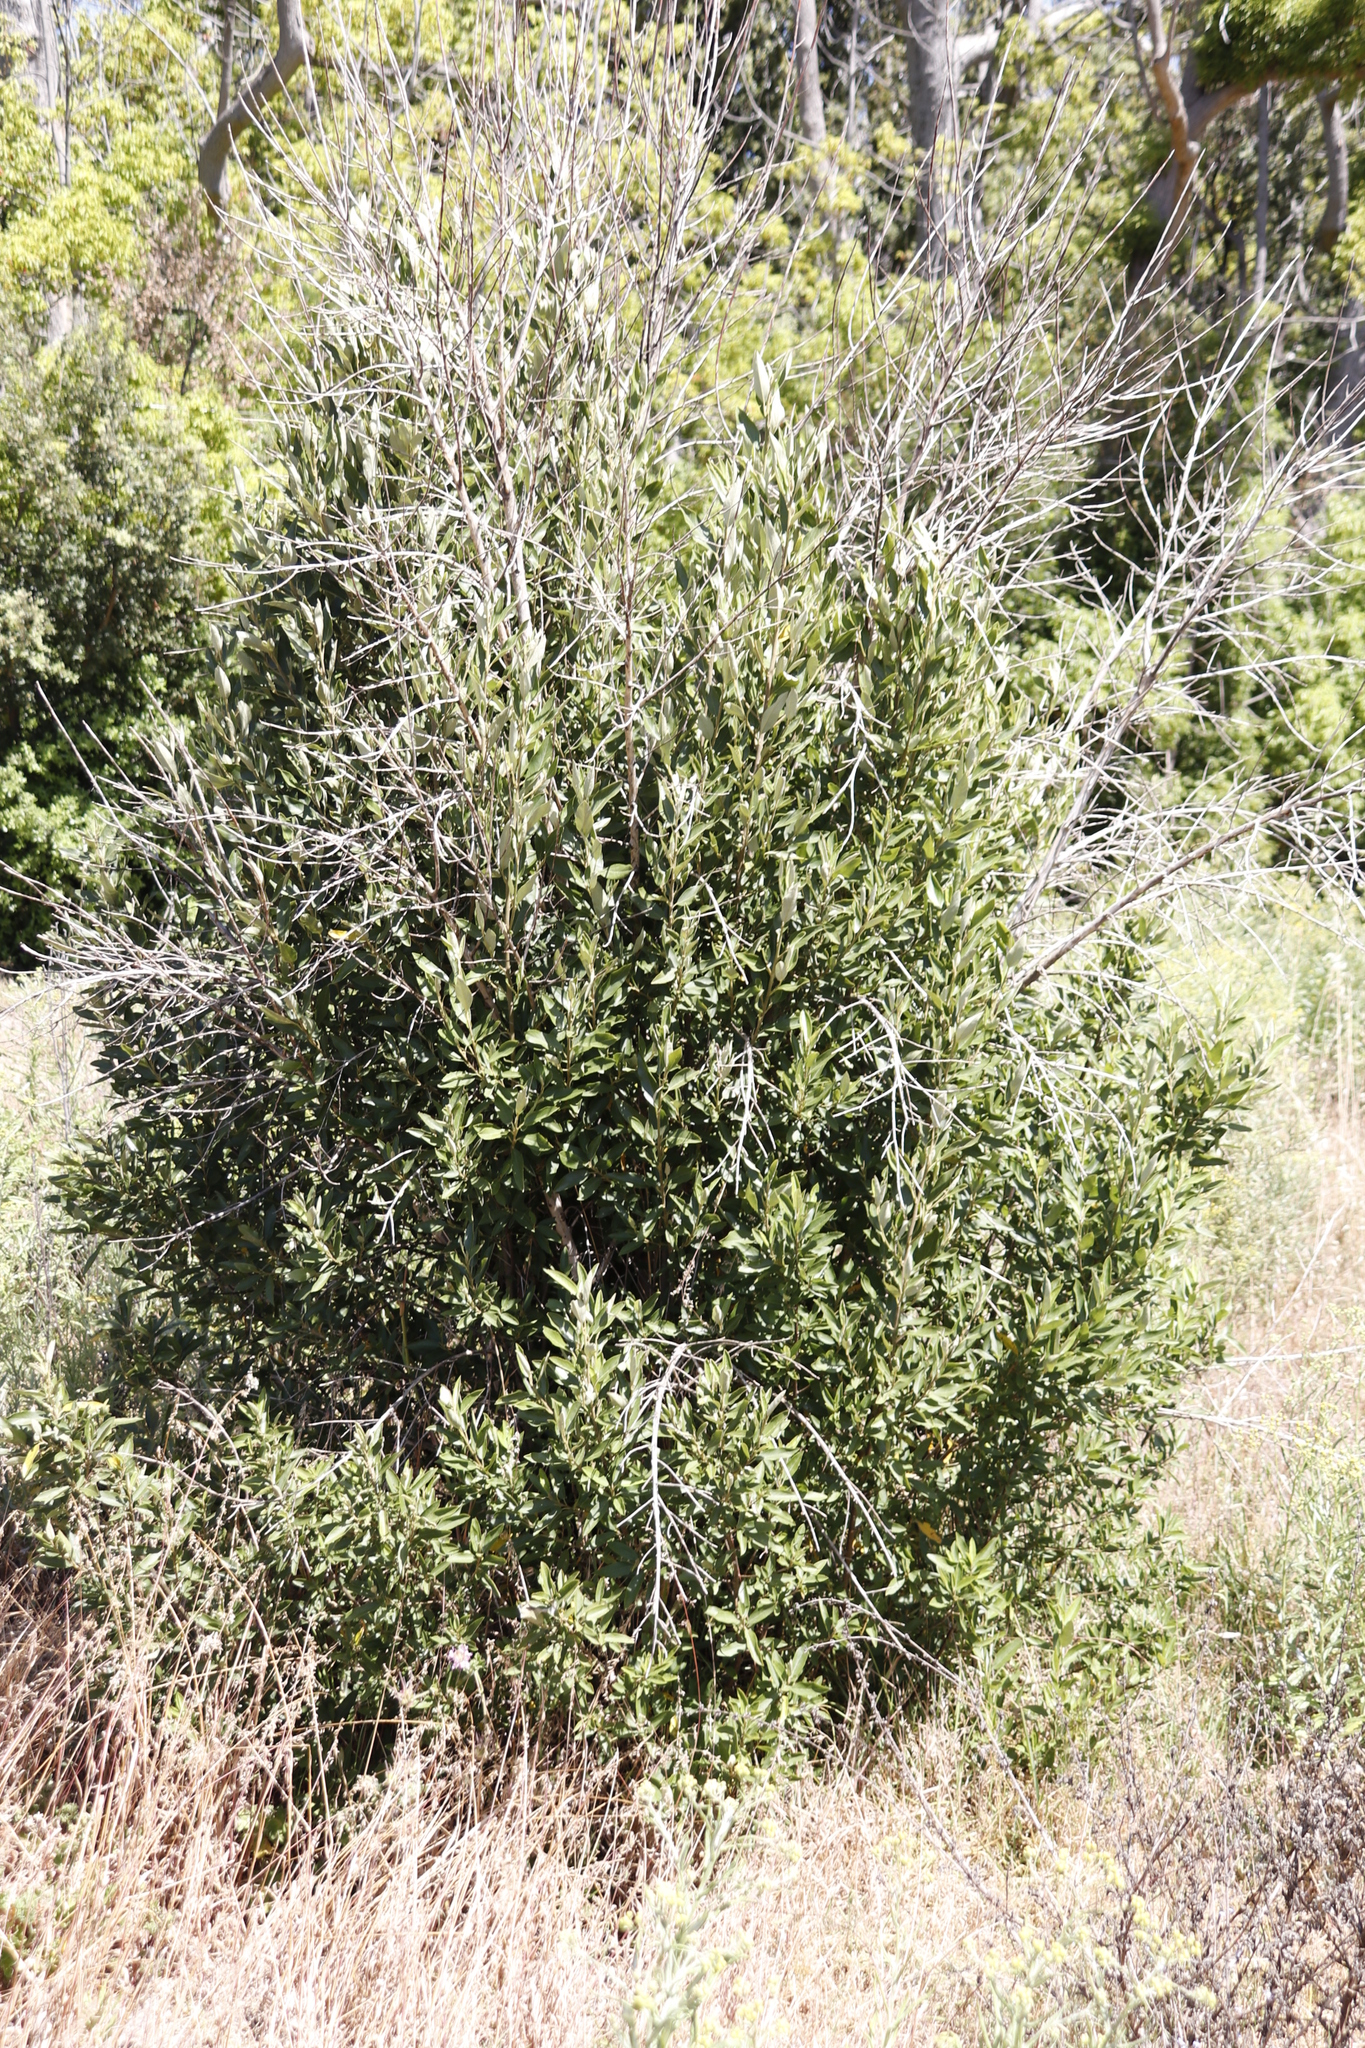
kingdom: Plantae
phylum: Tracheophyta
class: Magnoliopsida
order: Malpighiales
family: Achariaceae
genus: Kiggelaria
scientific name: Kiggelaria africana
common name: Wild peach
